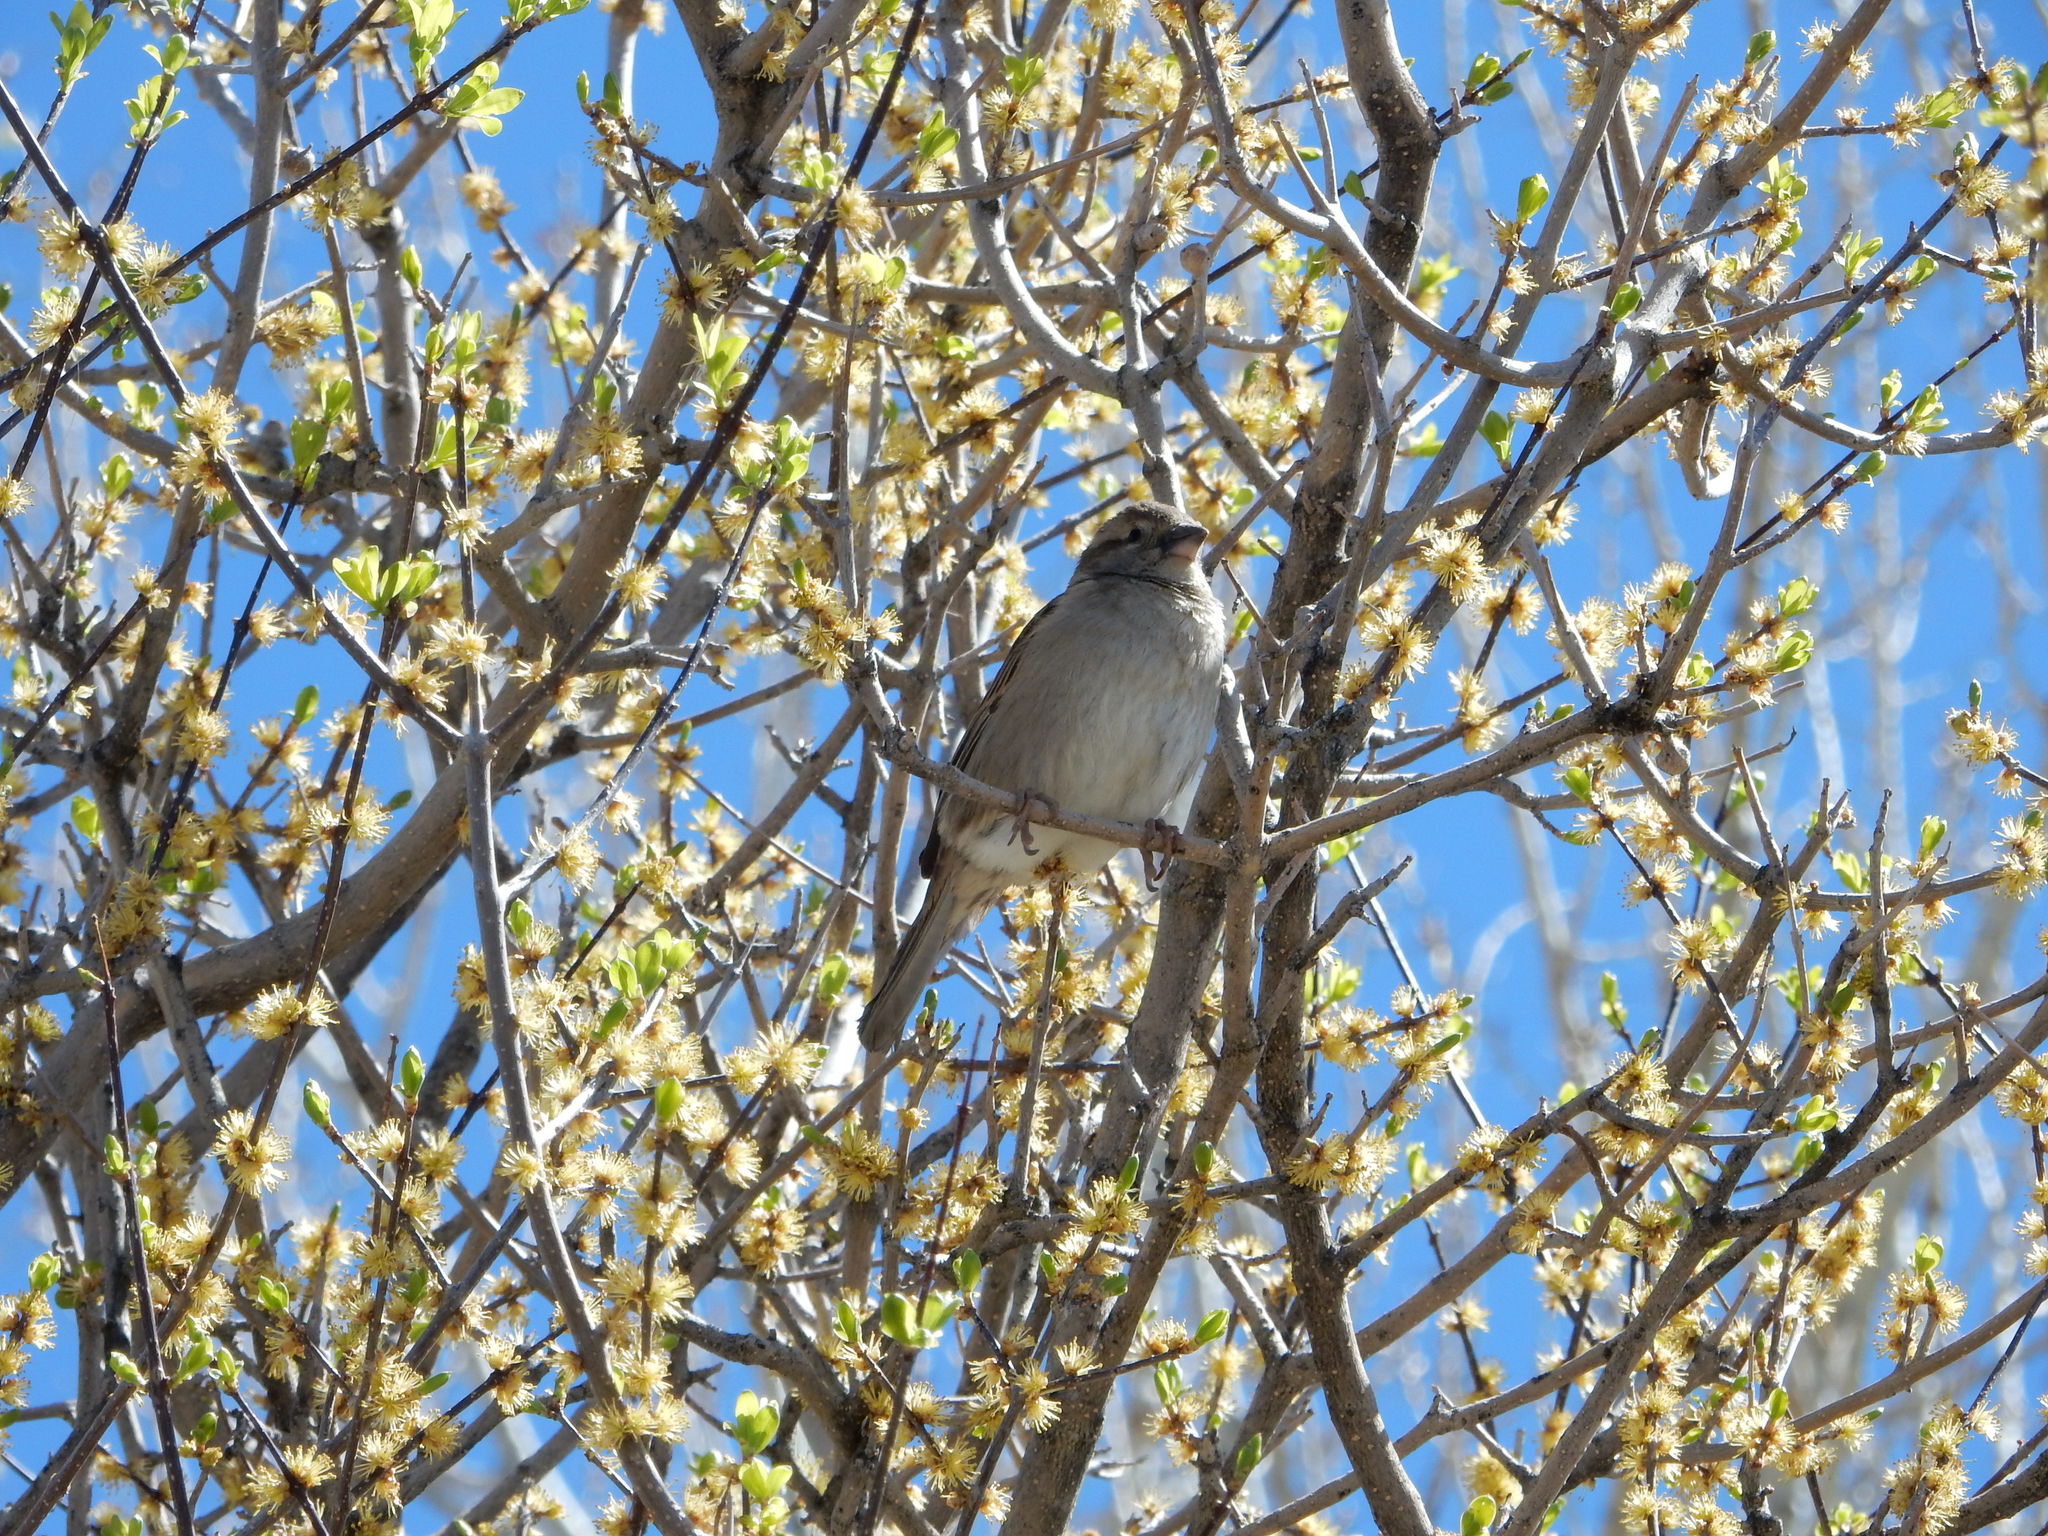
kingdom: Animalia
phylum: Chordata
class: Aves
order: Passeriformes
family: Passeridae
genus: Passer
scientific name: Passer domesticus
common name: House sparrow
